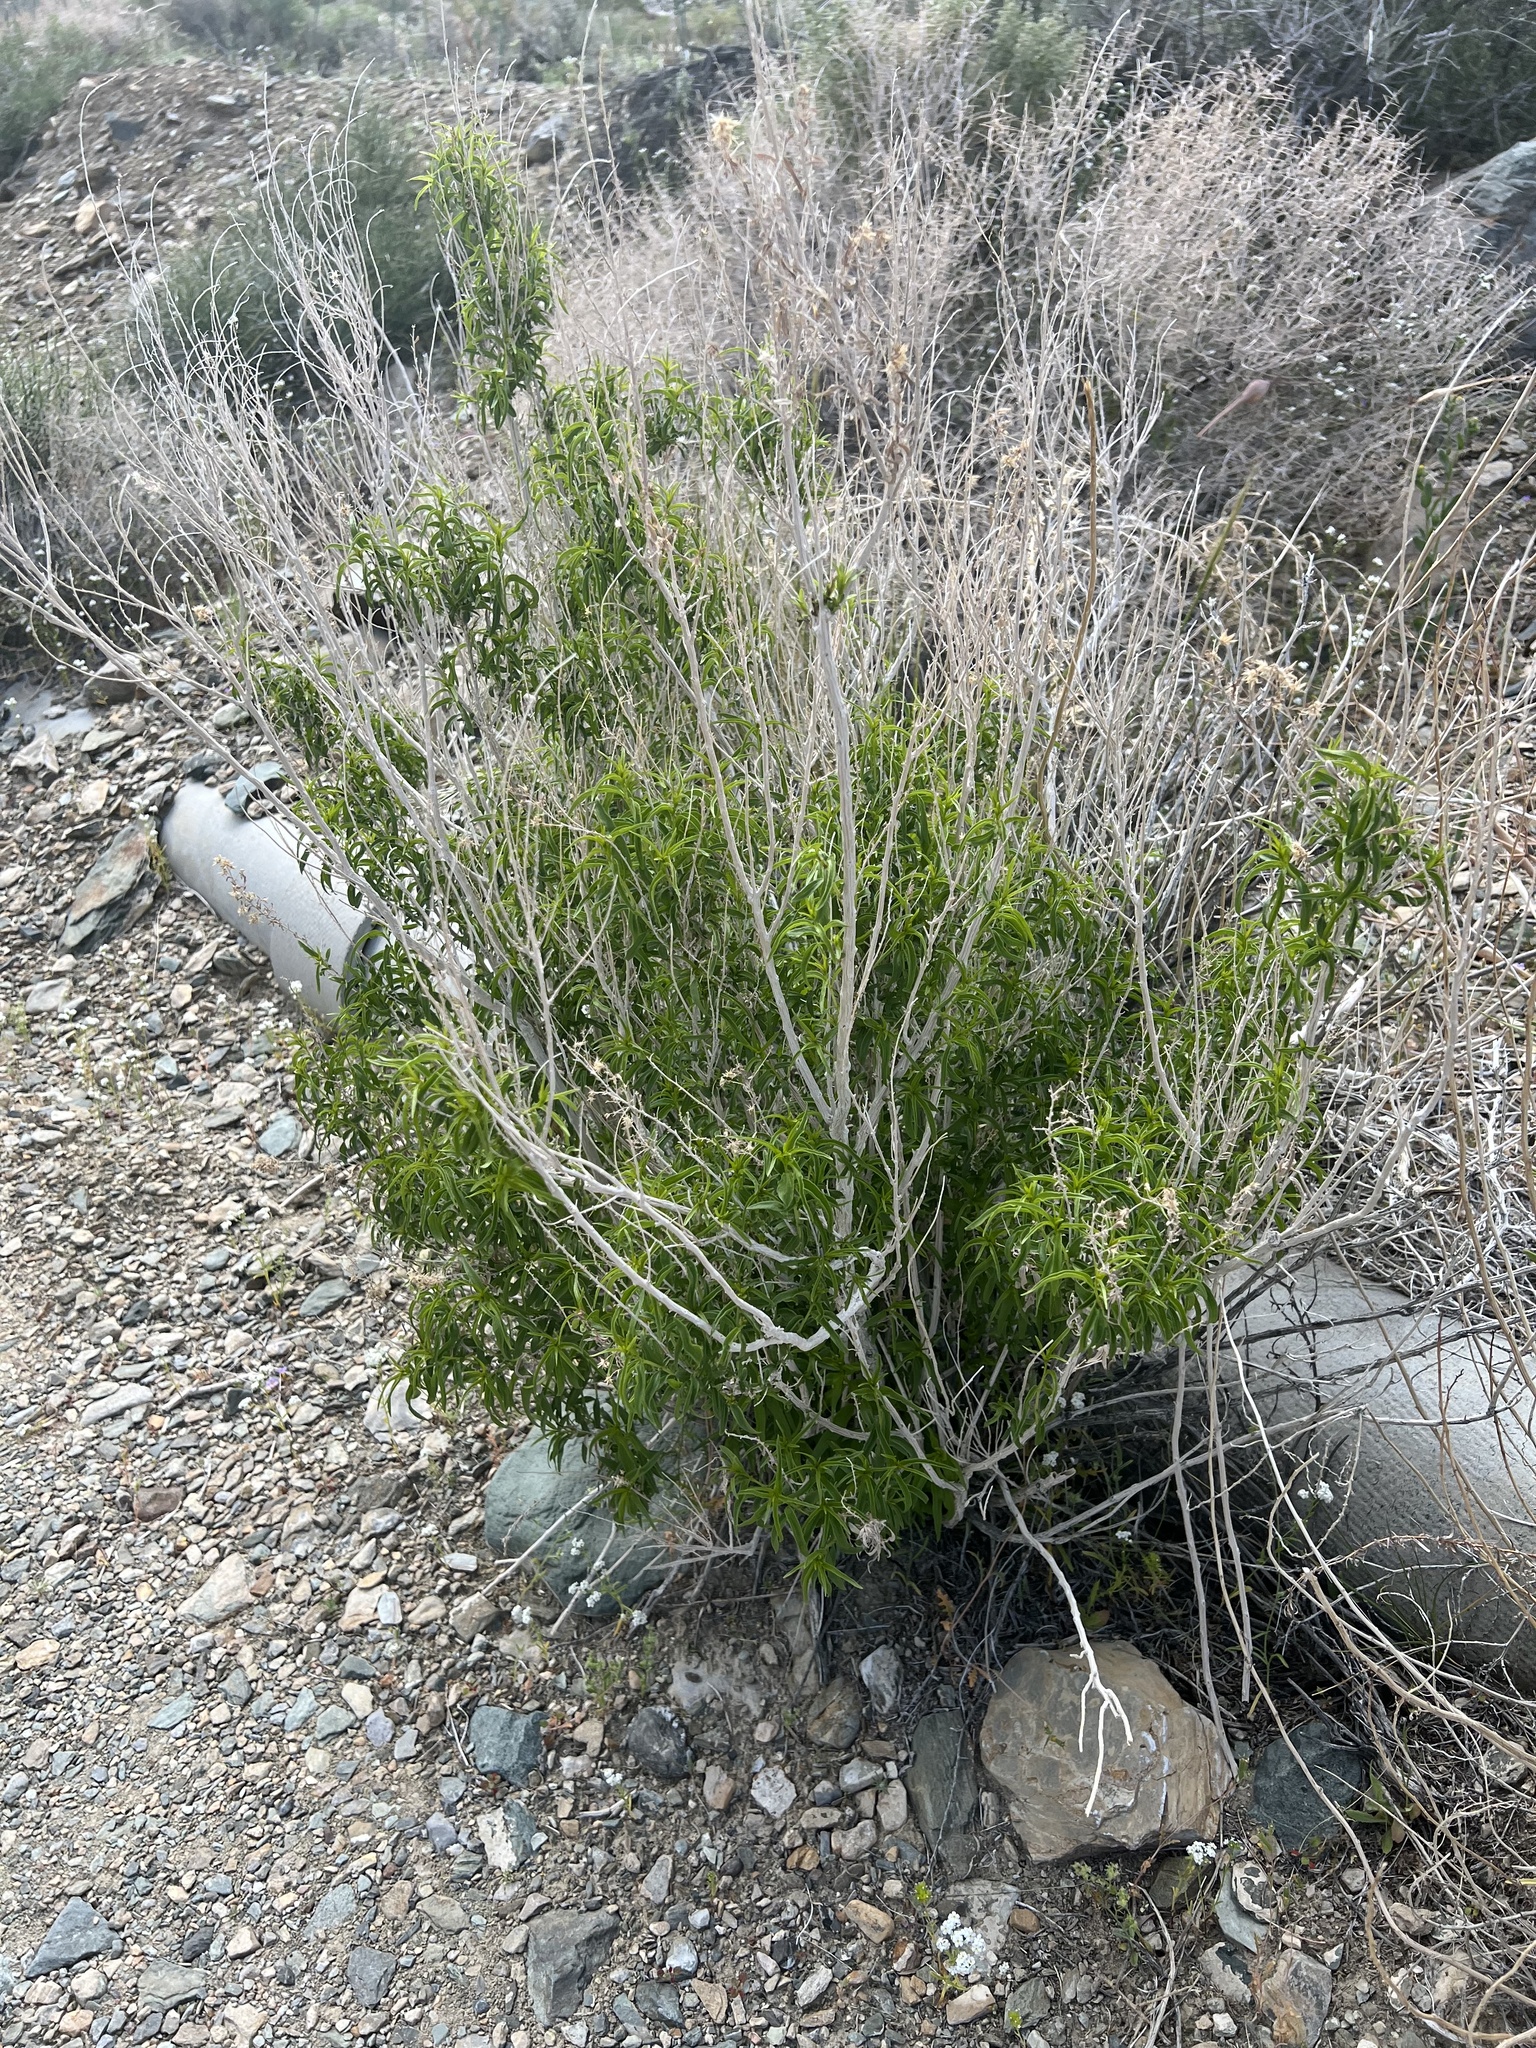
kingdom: Plantae
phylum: Tracheophyta
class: Magnoliopsida
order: Asterales
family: Asteraceae
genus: Brickellia
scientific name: Brickellia longifolia
